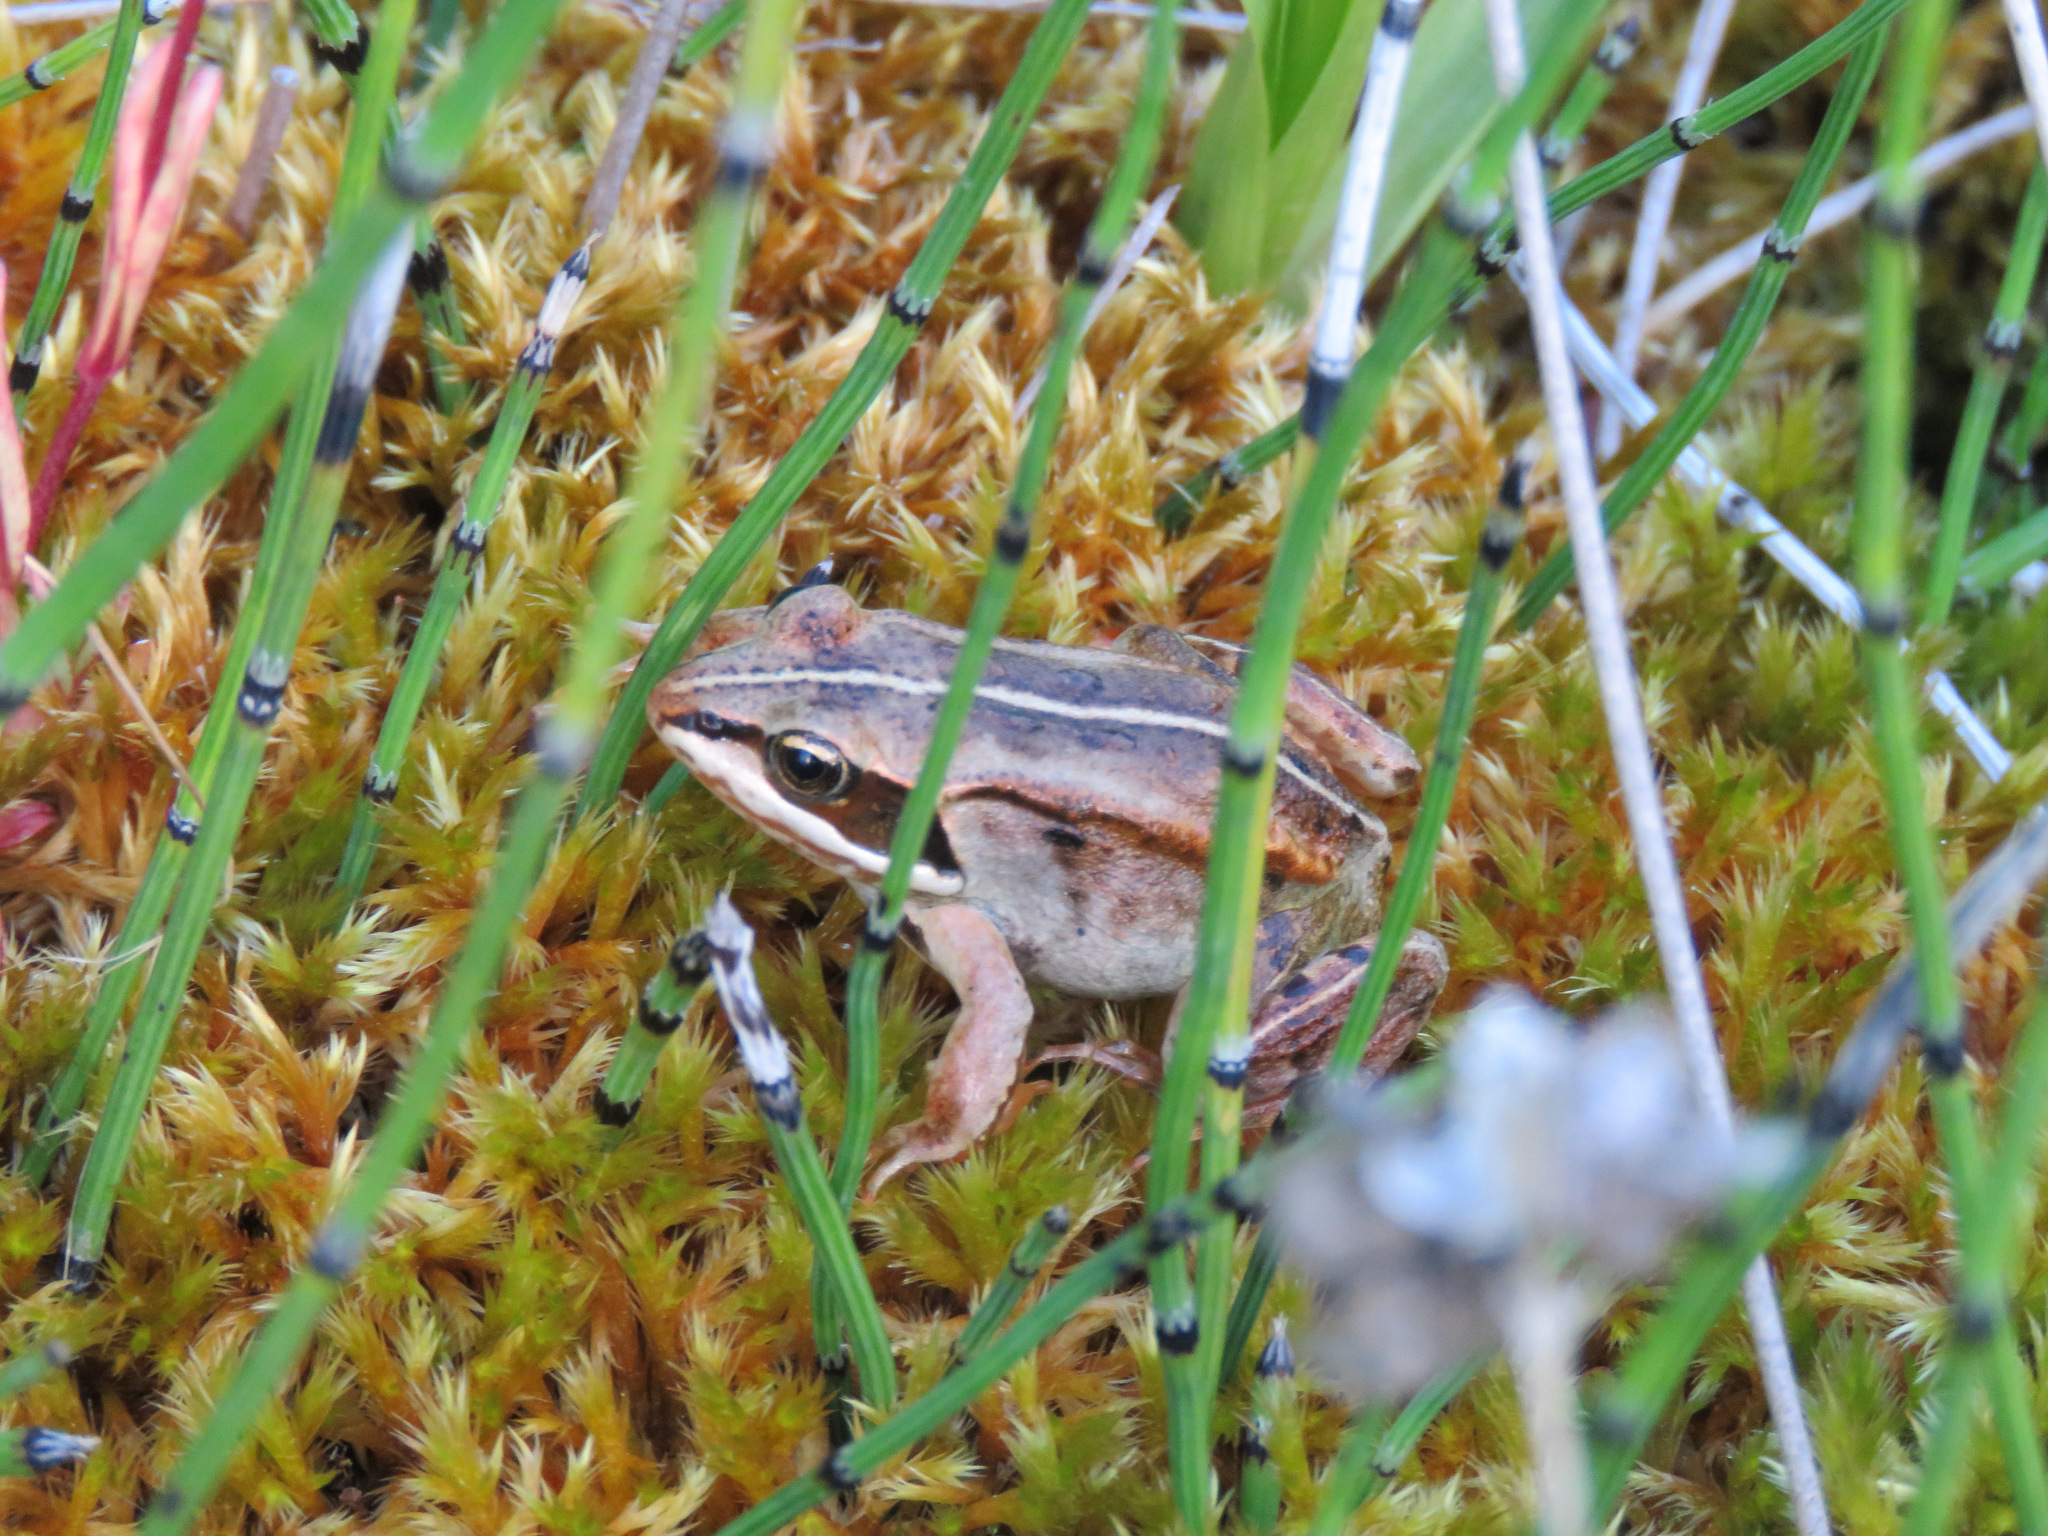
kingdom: Animalia
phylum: Chordata
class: Amphibia
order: Anura
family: Ranidae
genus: Lithobates
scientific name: Lithobates sylvaticus
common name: Wood frog
